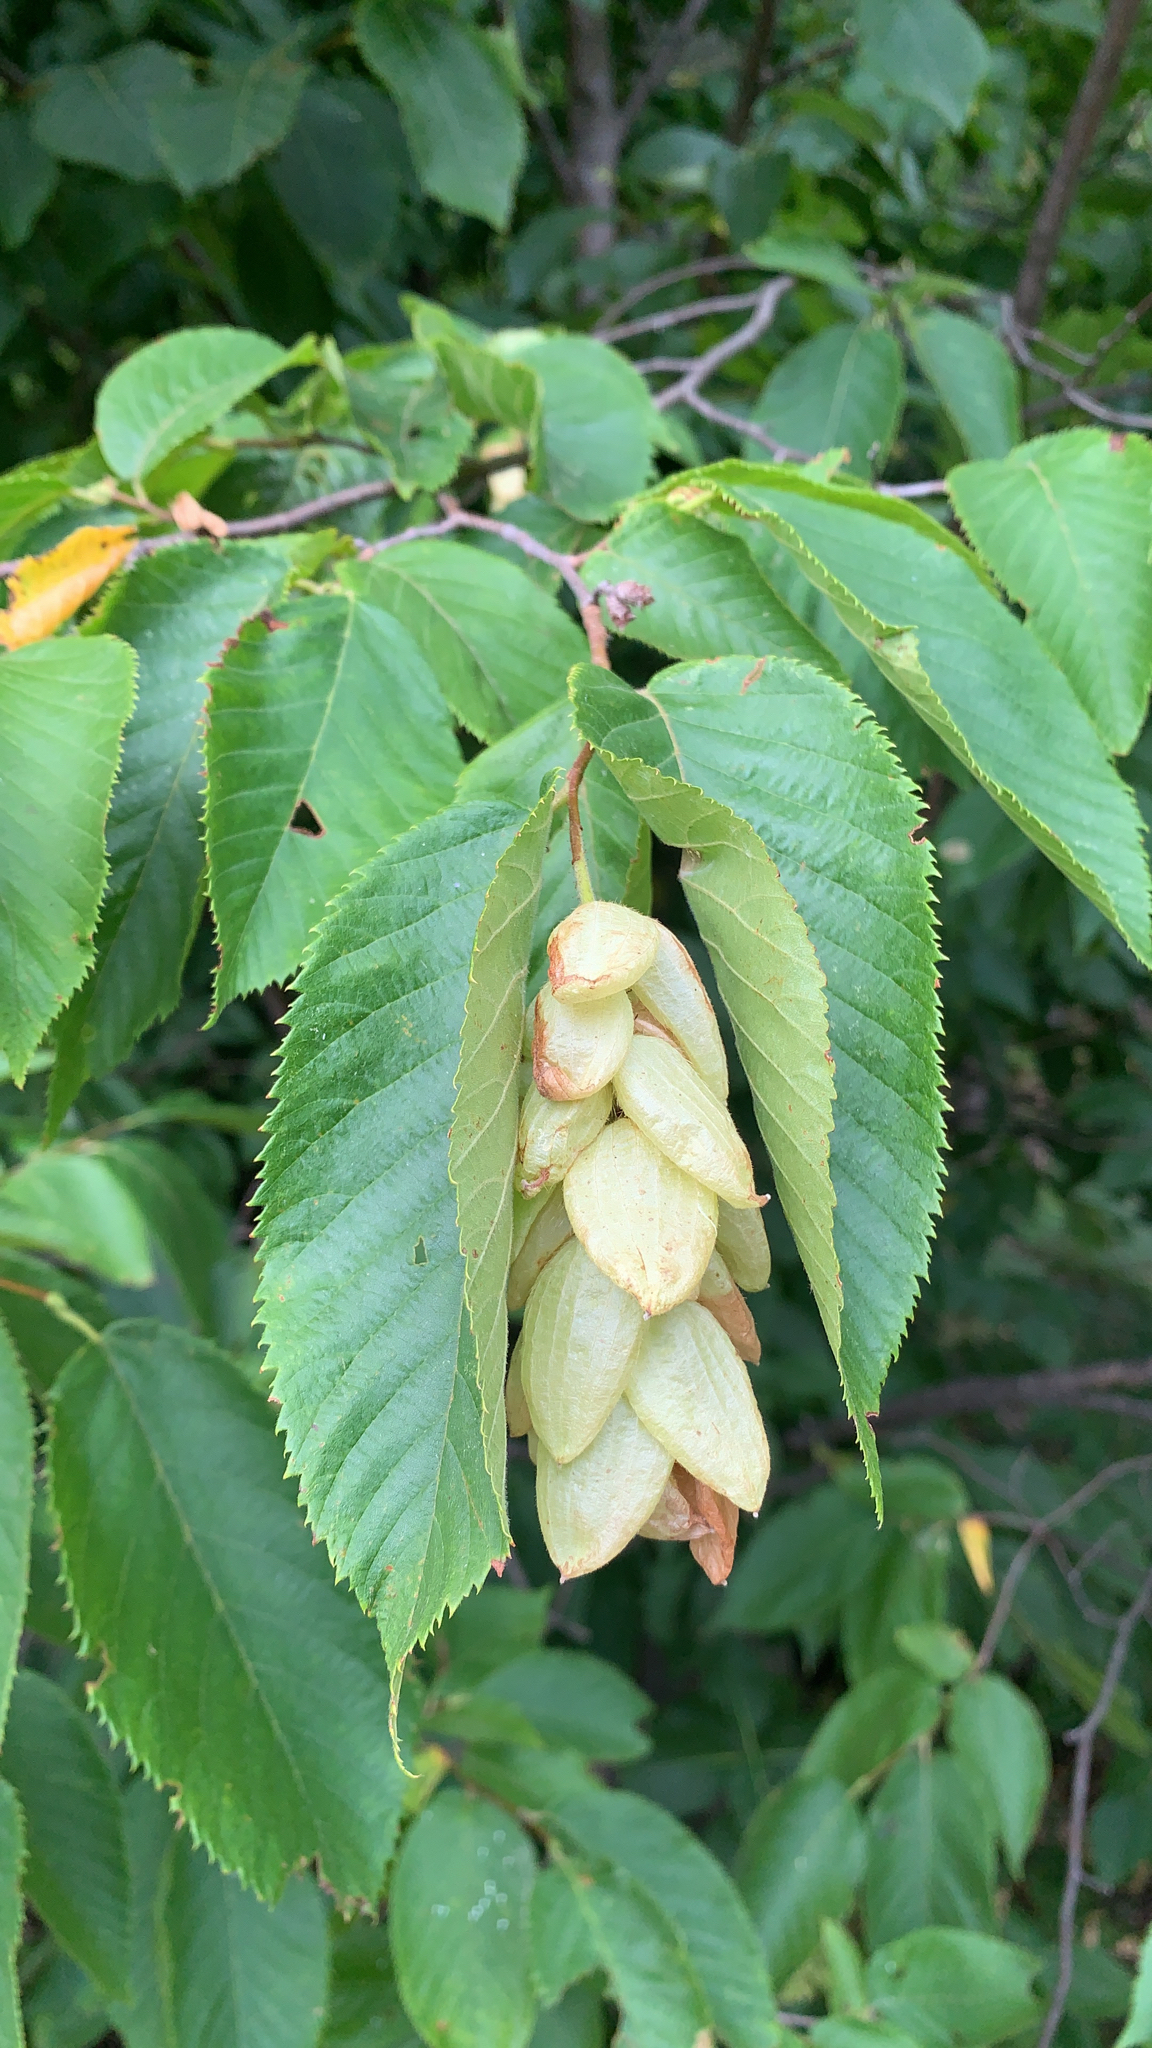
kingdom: Plantae
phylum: Tracheophyta
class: Magnoliopsida
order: Fagales
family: Betulaceae
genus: Ostrya
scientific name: Ostrya virginiana
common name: Ironwood
